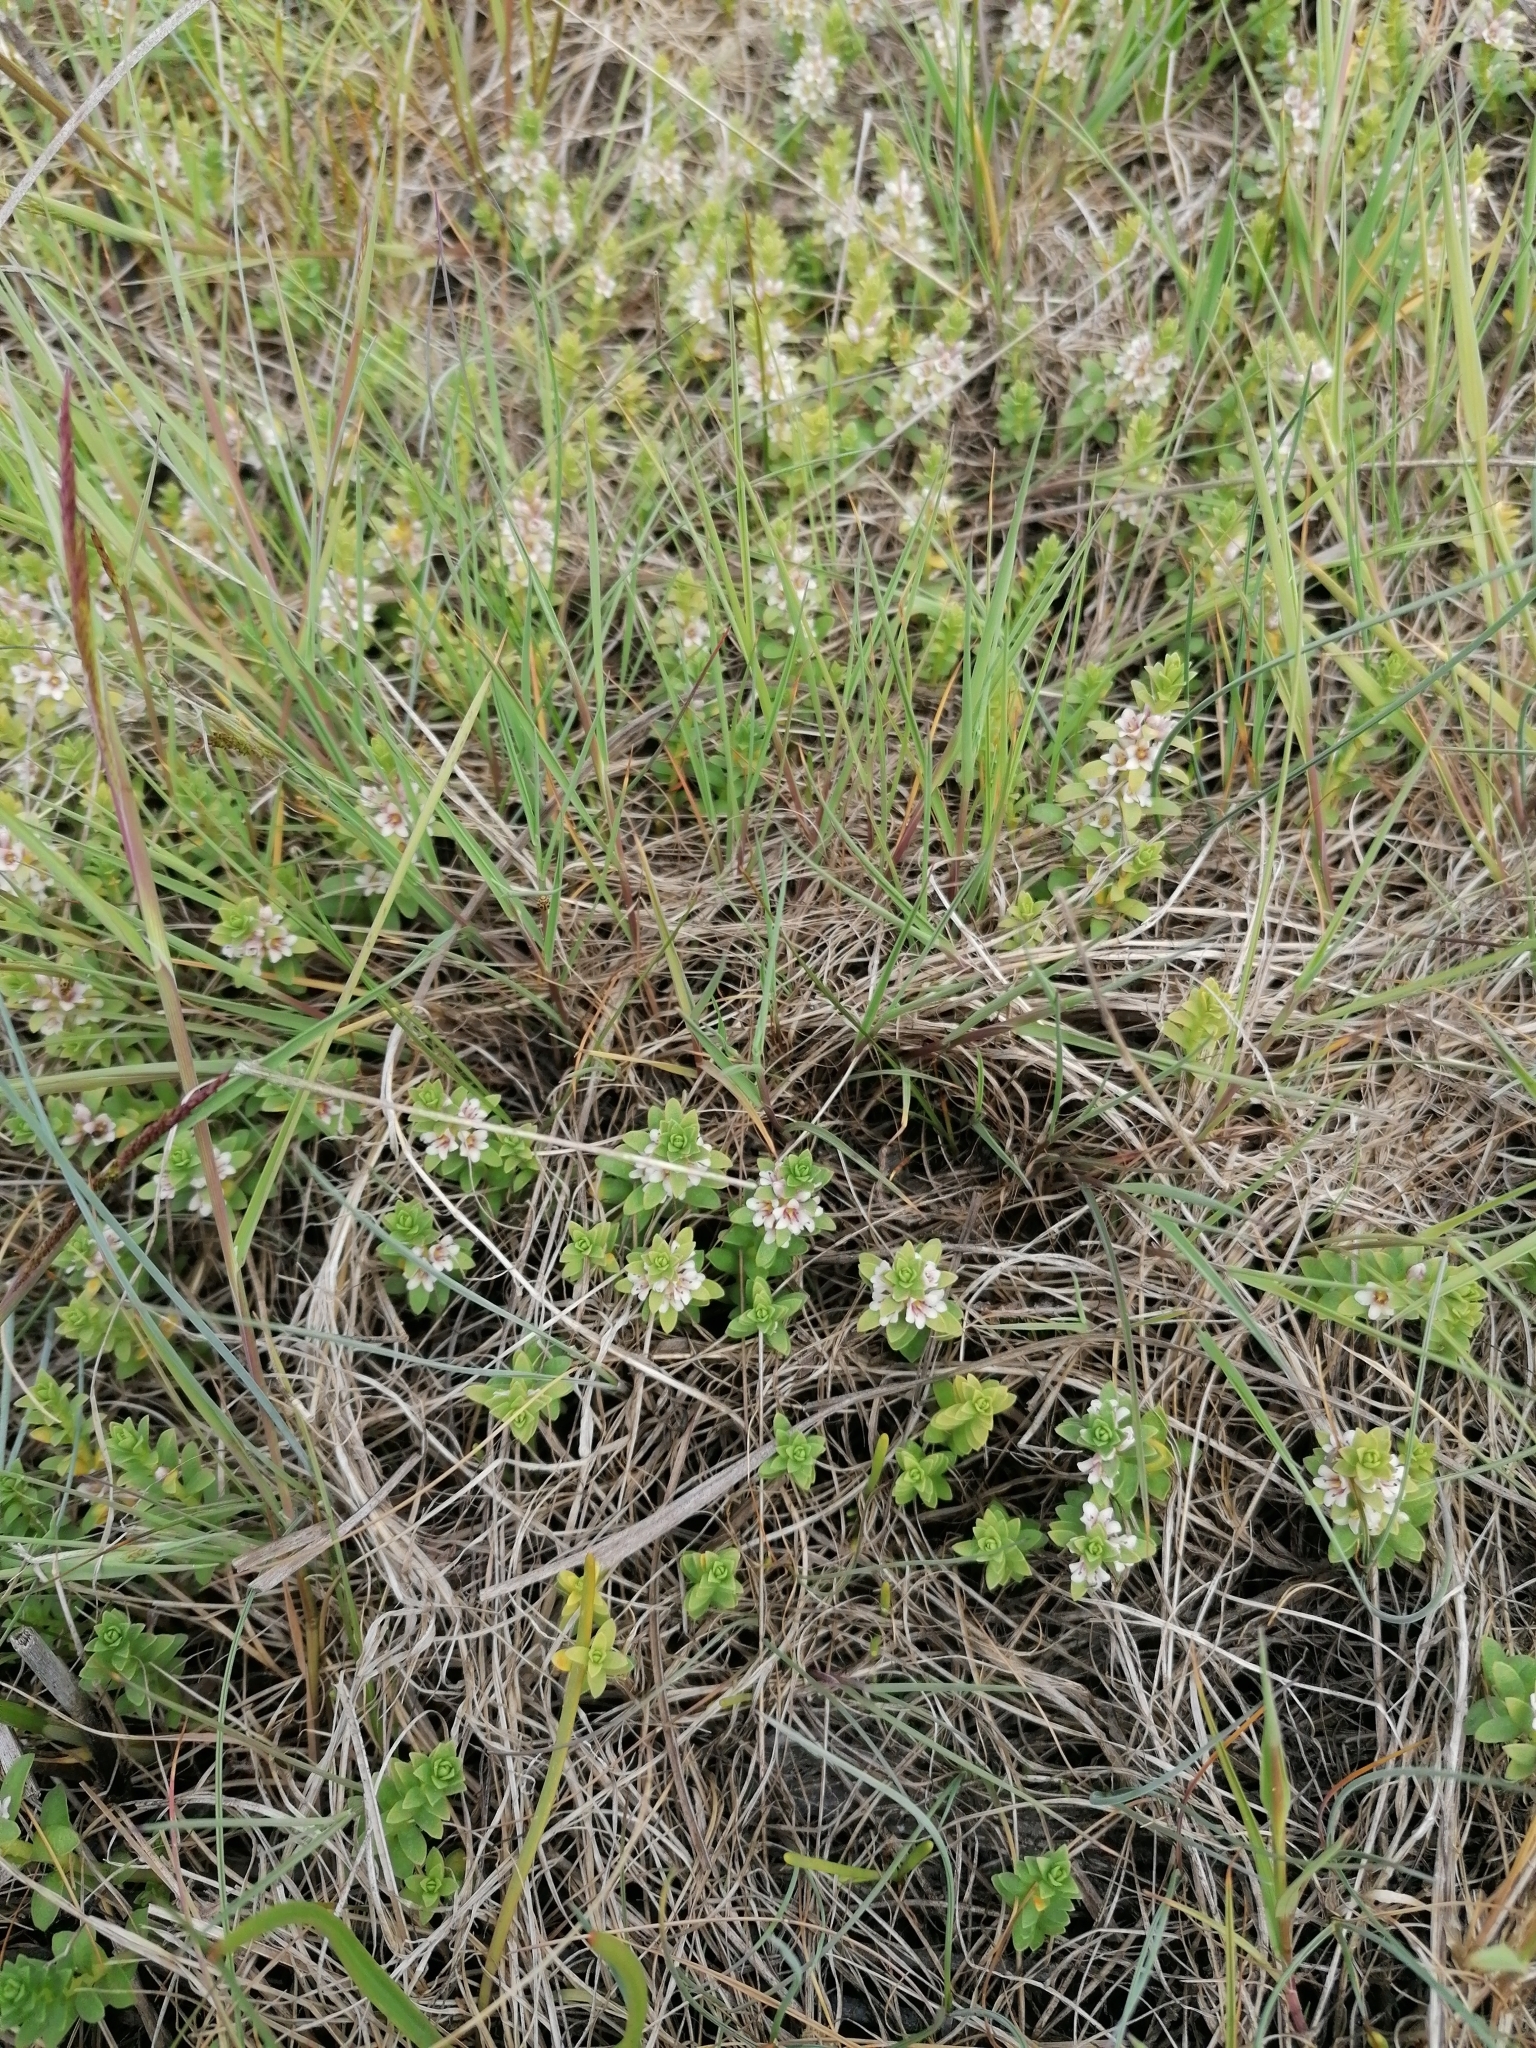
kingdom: Plantae
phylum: Tracheophyta
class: Magnoliopsida
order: Ericales
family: Primulaceae
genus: Lysimachia
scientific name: Lysimachia maritima
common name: Sea milkwort
